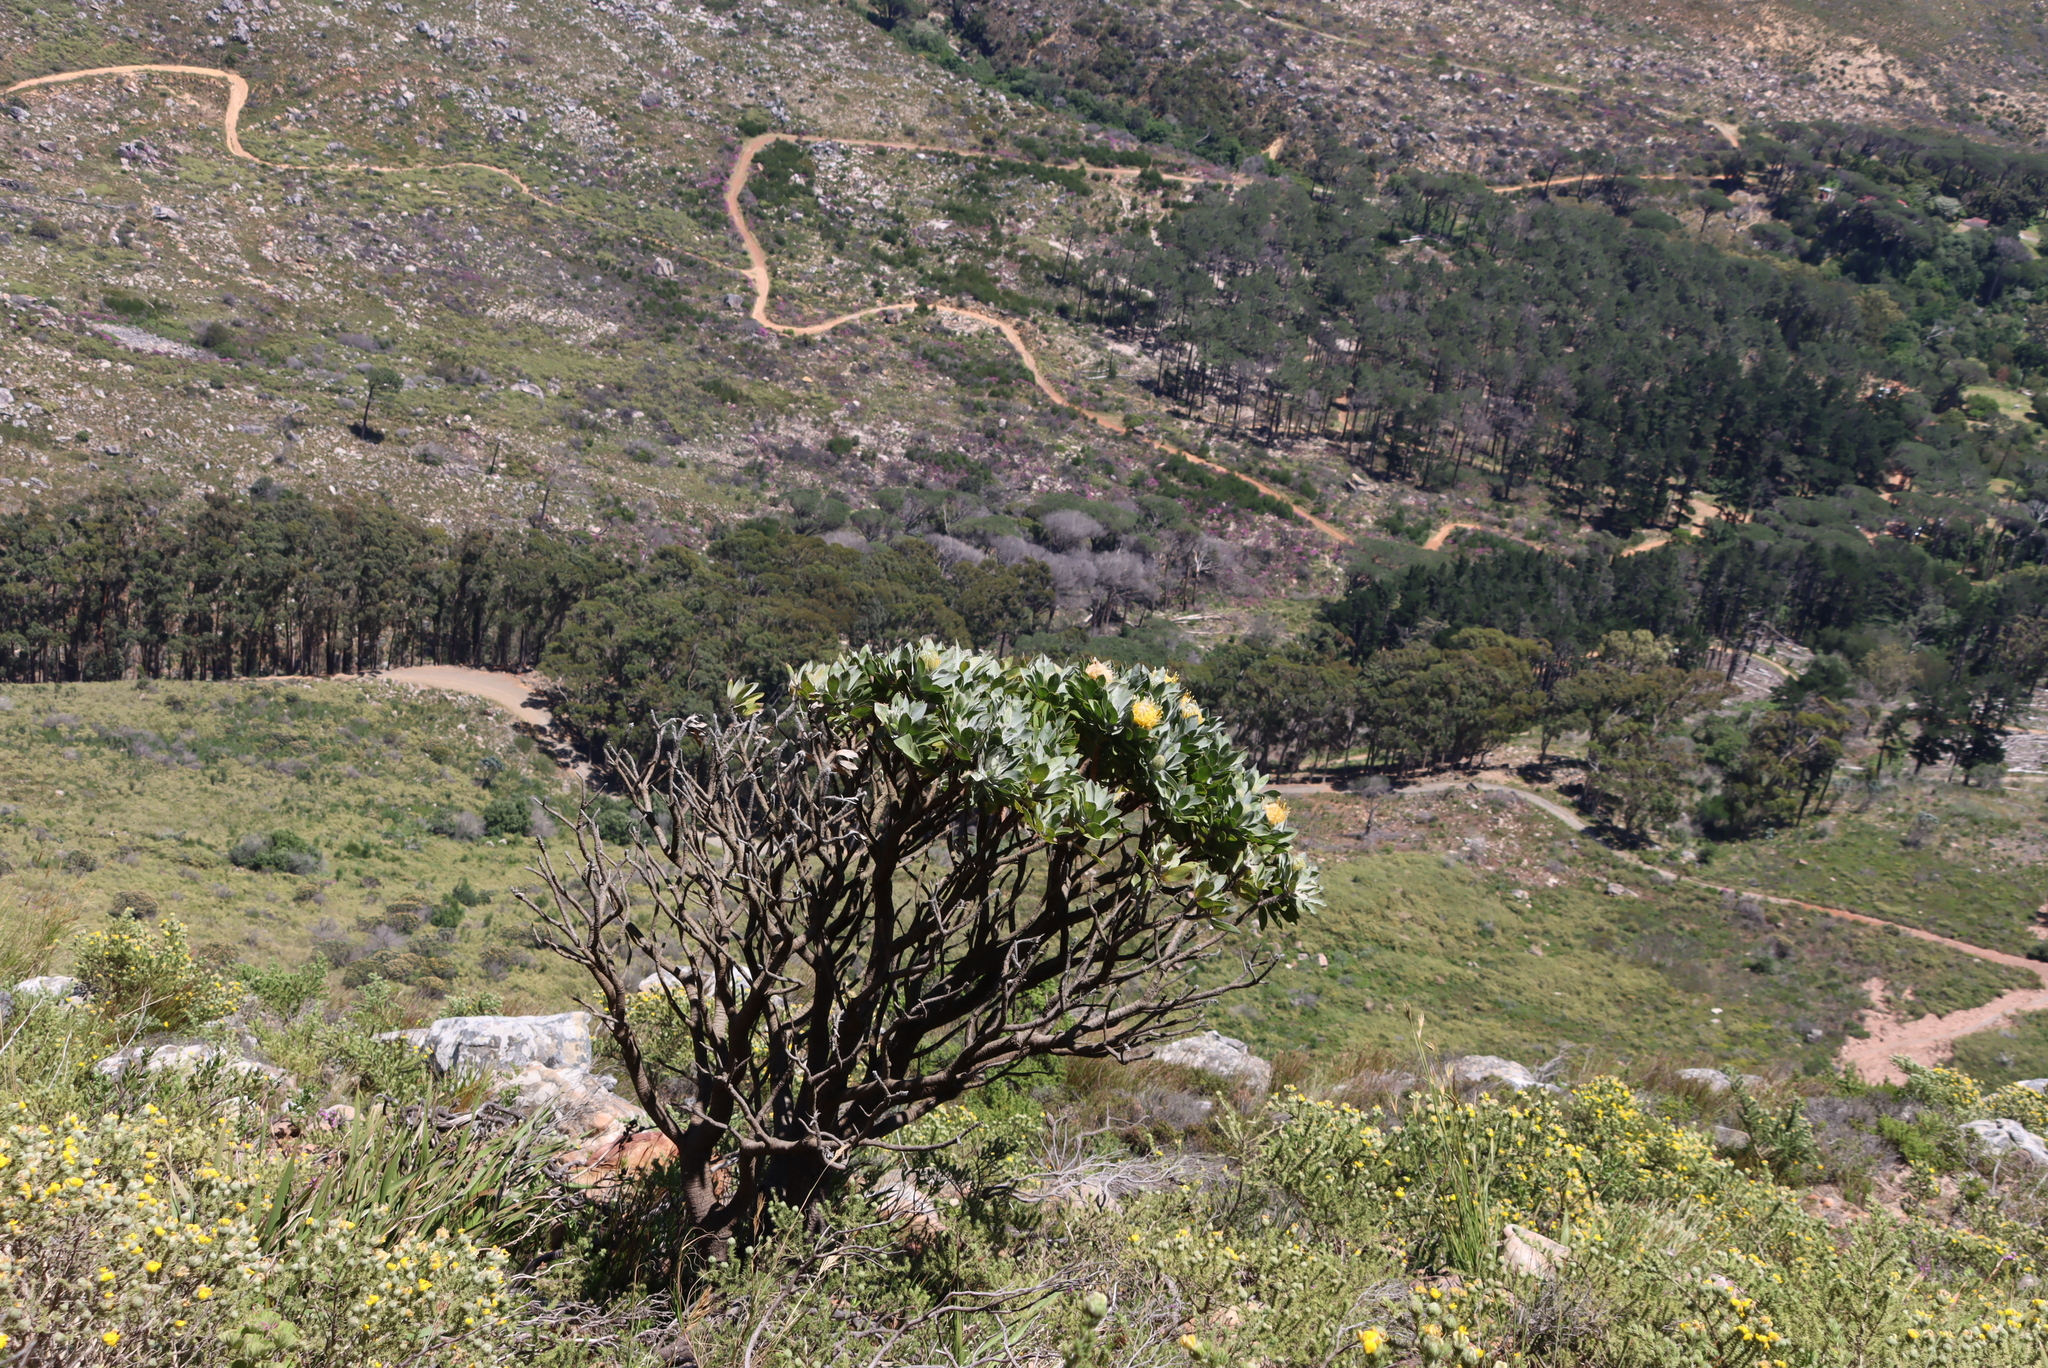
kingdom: Plantae
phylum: Tracheophyta
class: Magnoliopsida
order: Proteales
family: Proteaceae
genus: Leucospermum
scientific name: Leucospermum conocarpodendron
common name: Tree pincushion
